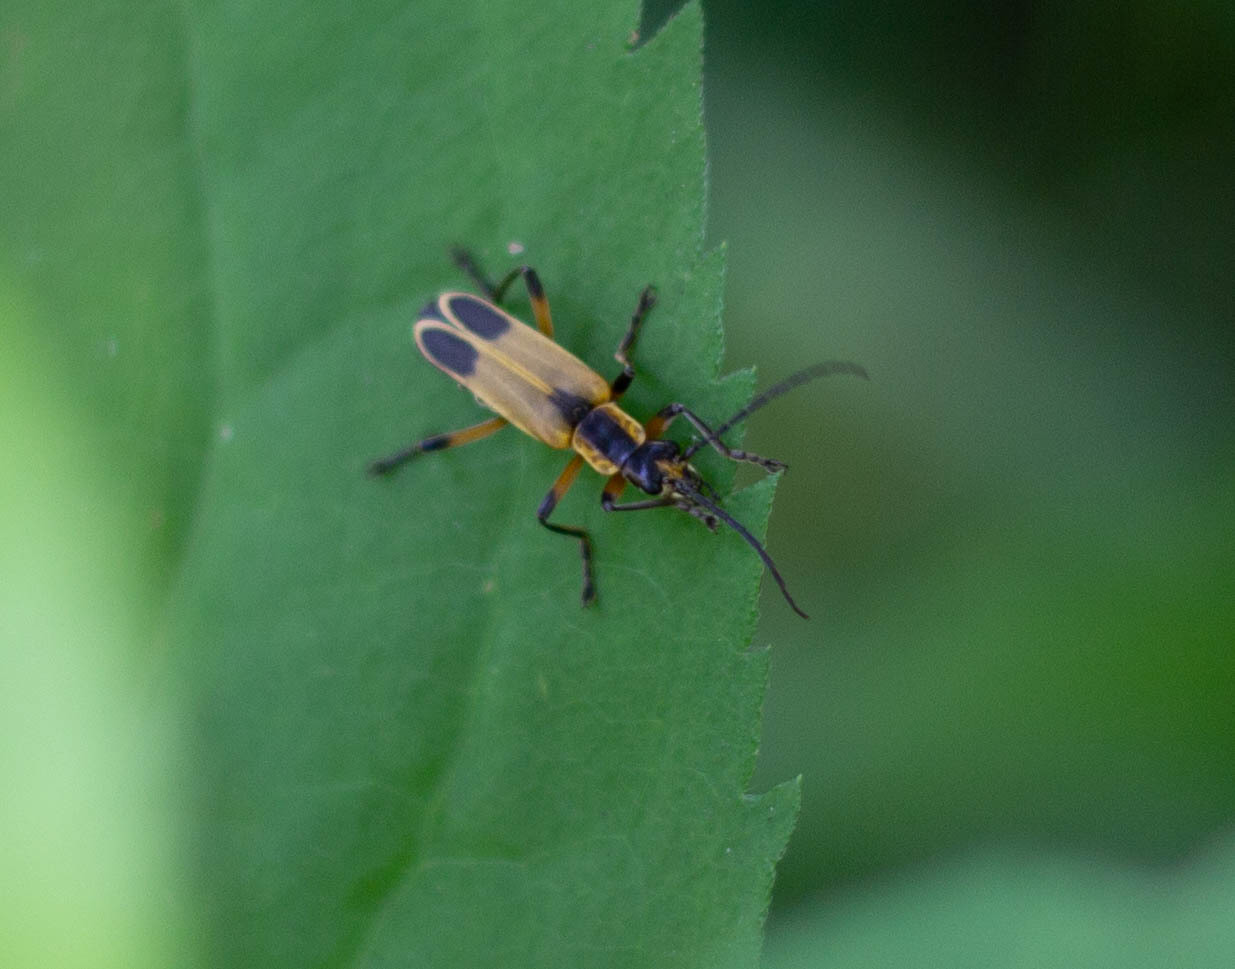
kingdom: Animalia
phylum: Arthropoda
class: Insecta
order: Coleoptera
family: Cantharidae
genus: Chauliognathus
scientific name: Chauliognathus marginatus
